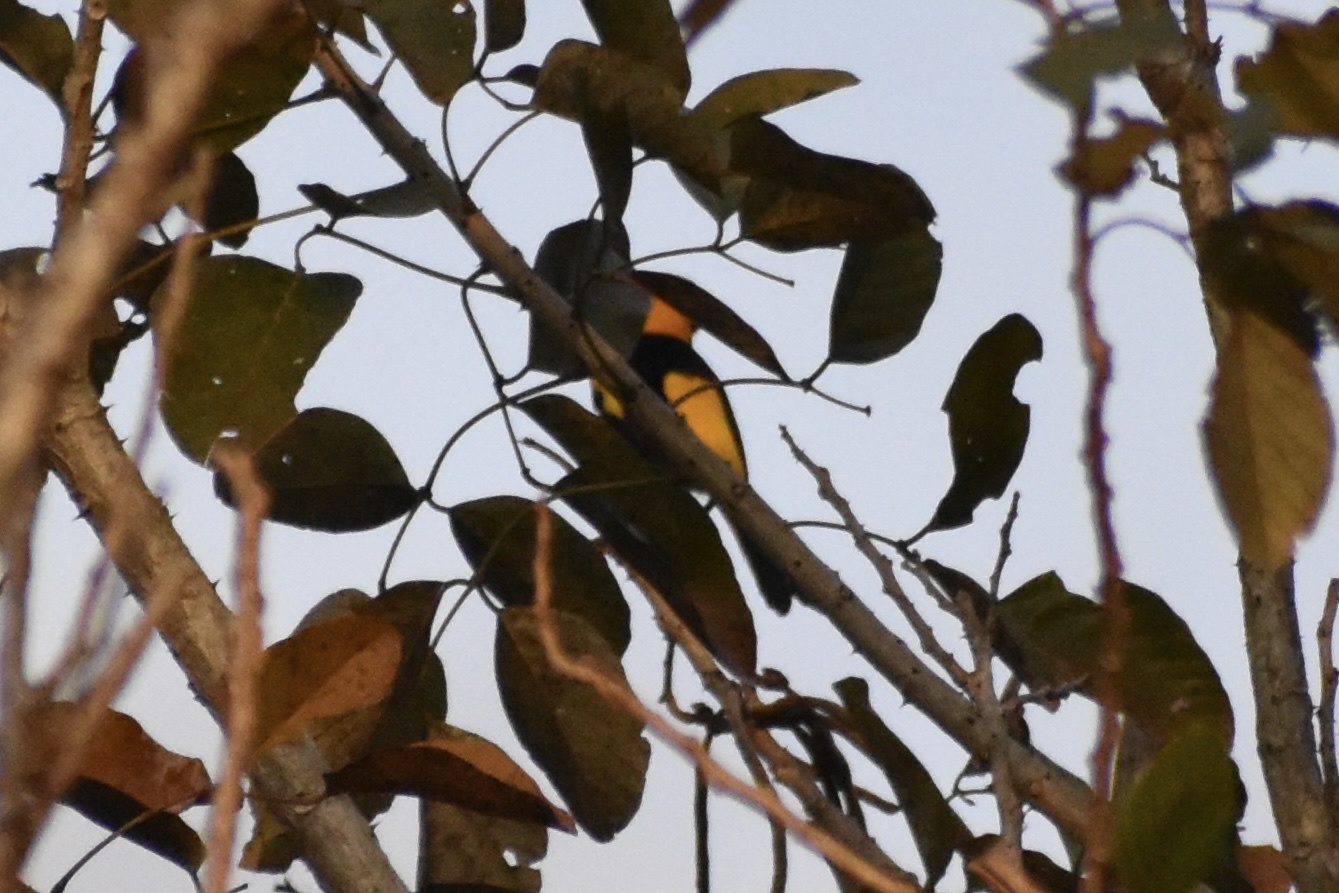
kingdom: Animalia
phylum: Chordata
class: Aves
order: Passeriformes
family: Icteridae
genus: Icterus
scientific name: Icterus mesomelas
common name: Yellow-tailed oriole
